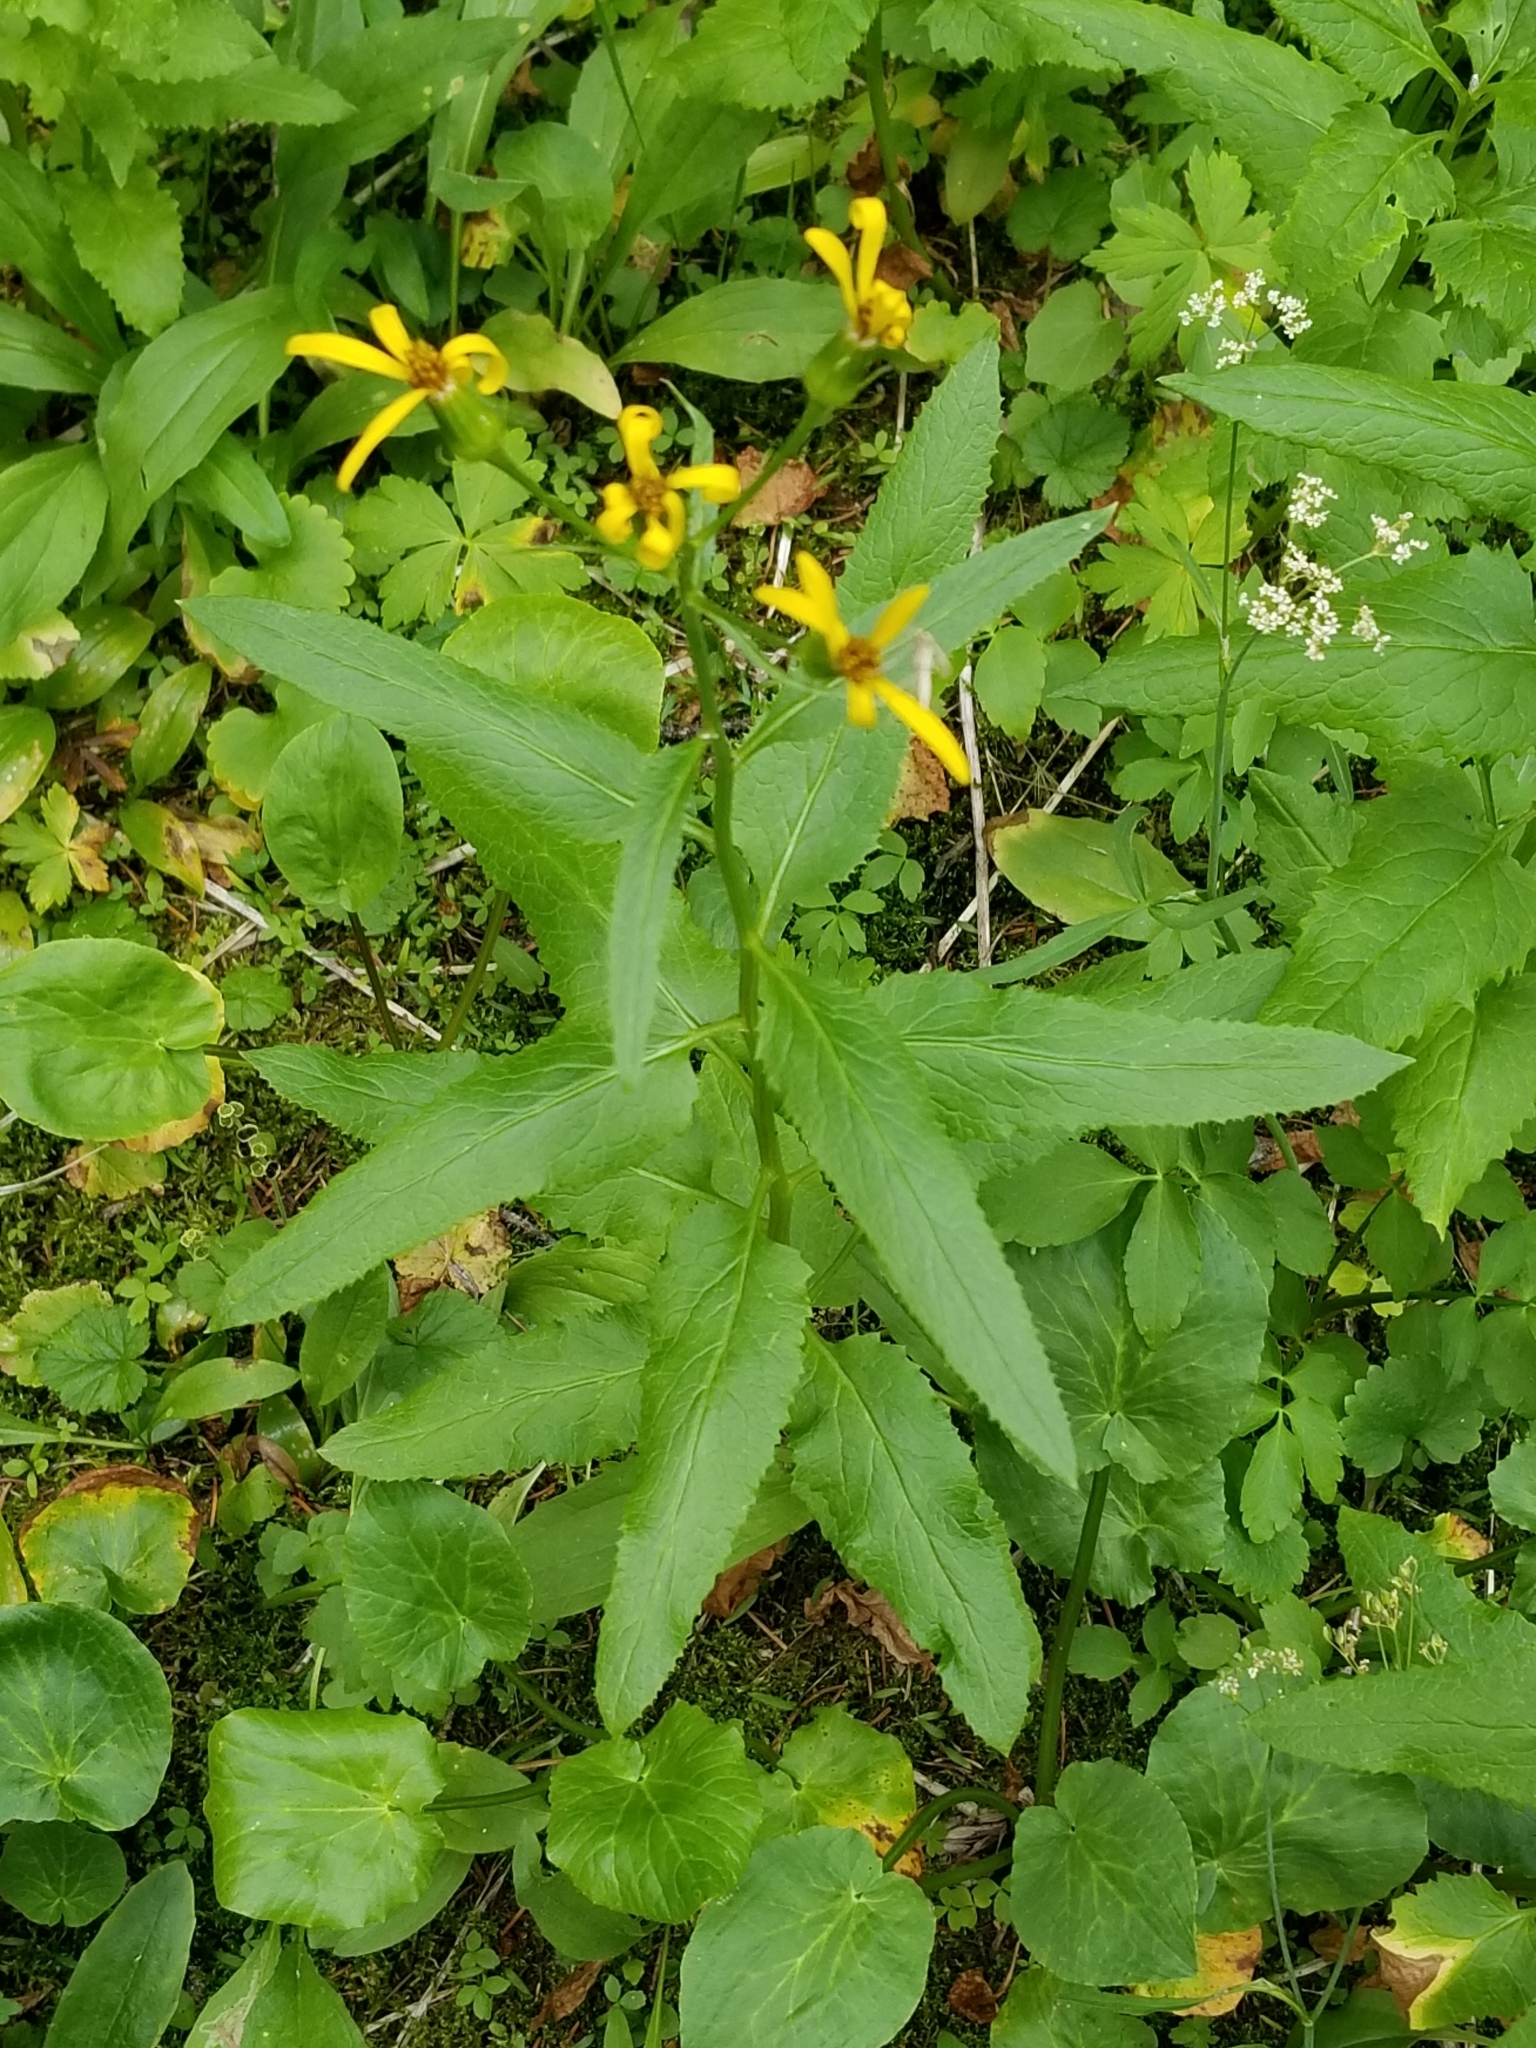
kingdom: Plantae
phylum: Tracheophyta
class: Magnoliopsida
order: Asterales
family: Asteraceae
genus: Senecio
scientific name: Senecio triangularis
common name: Arrowleaf butterweed
